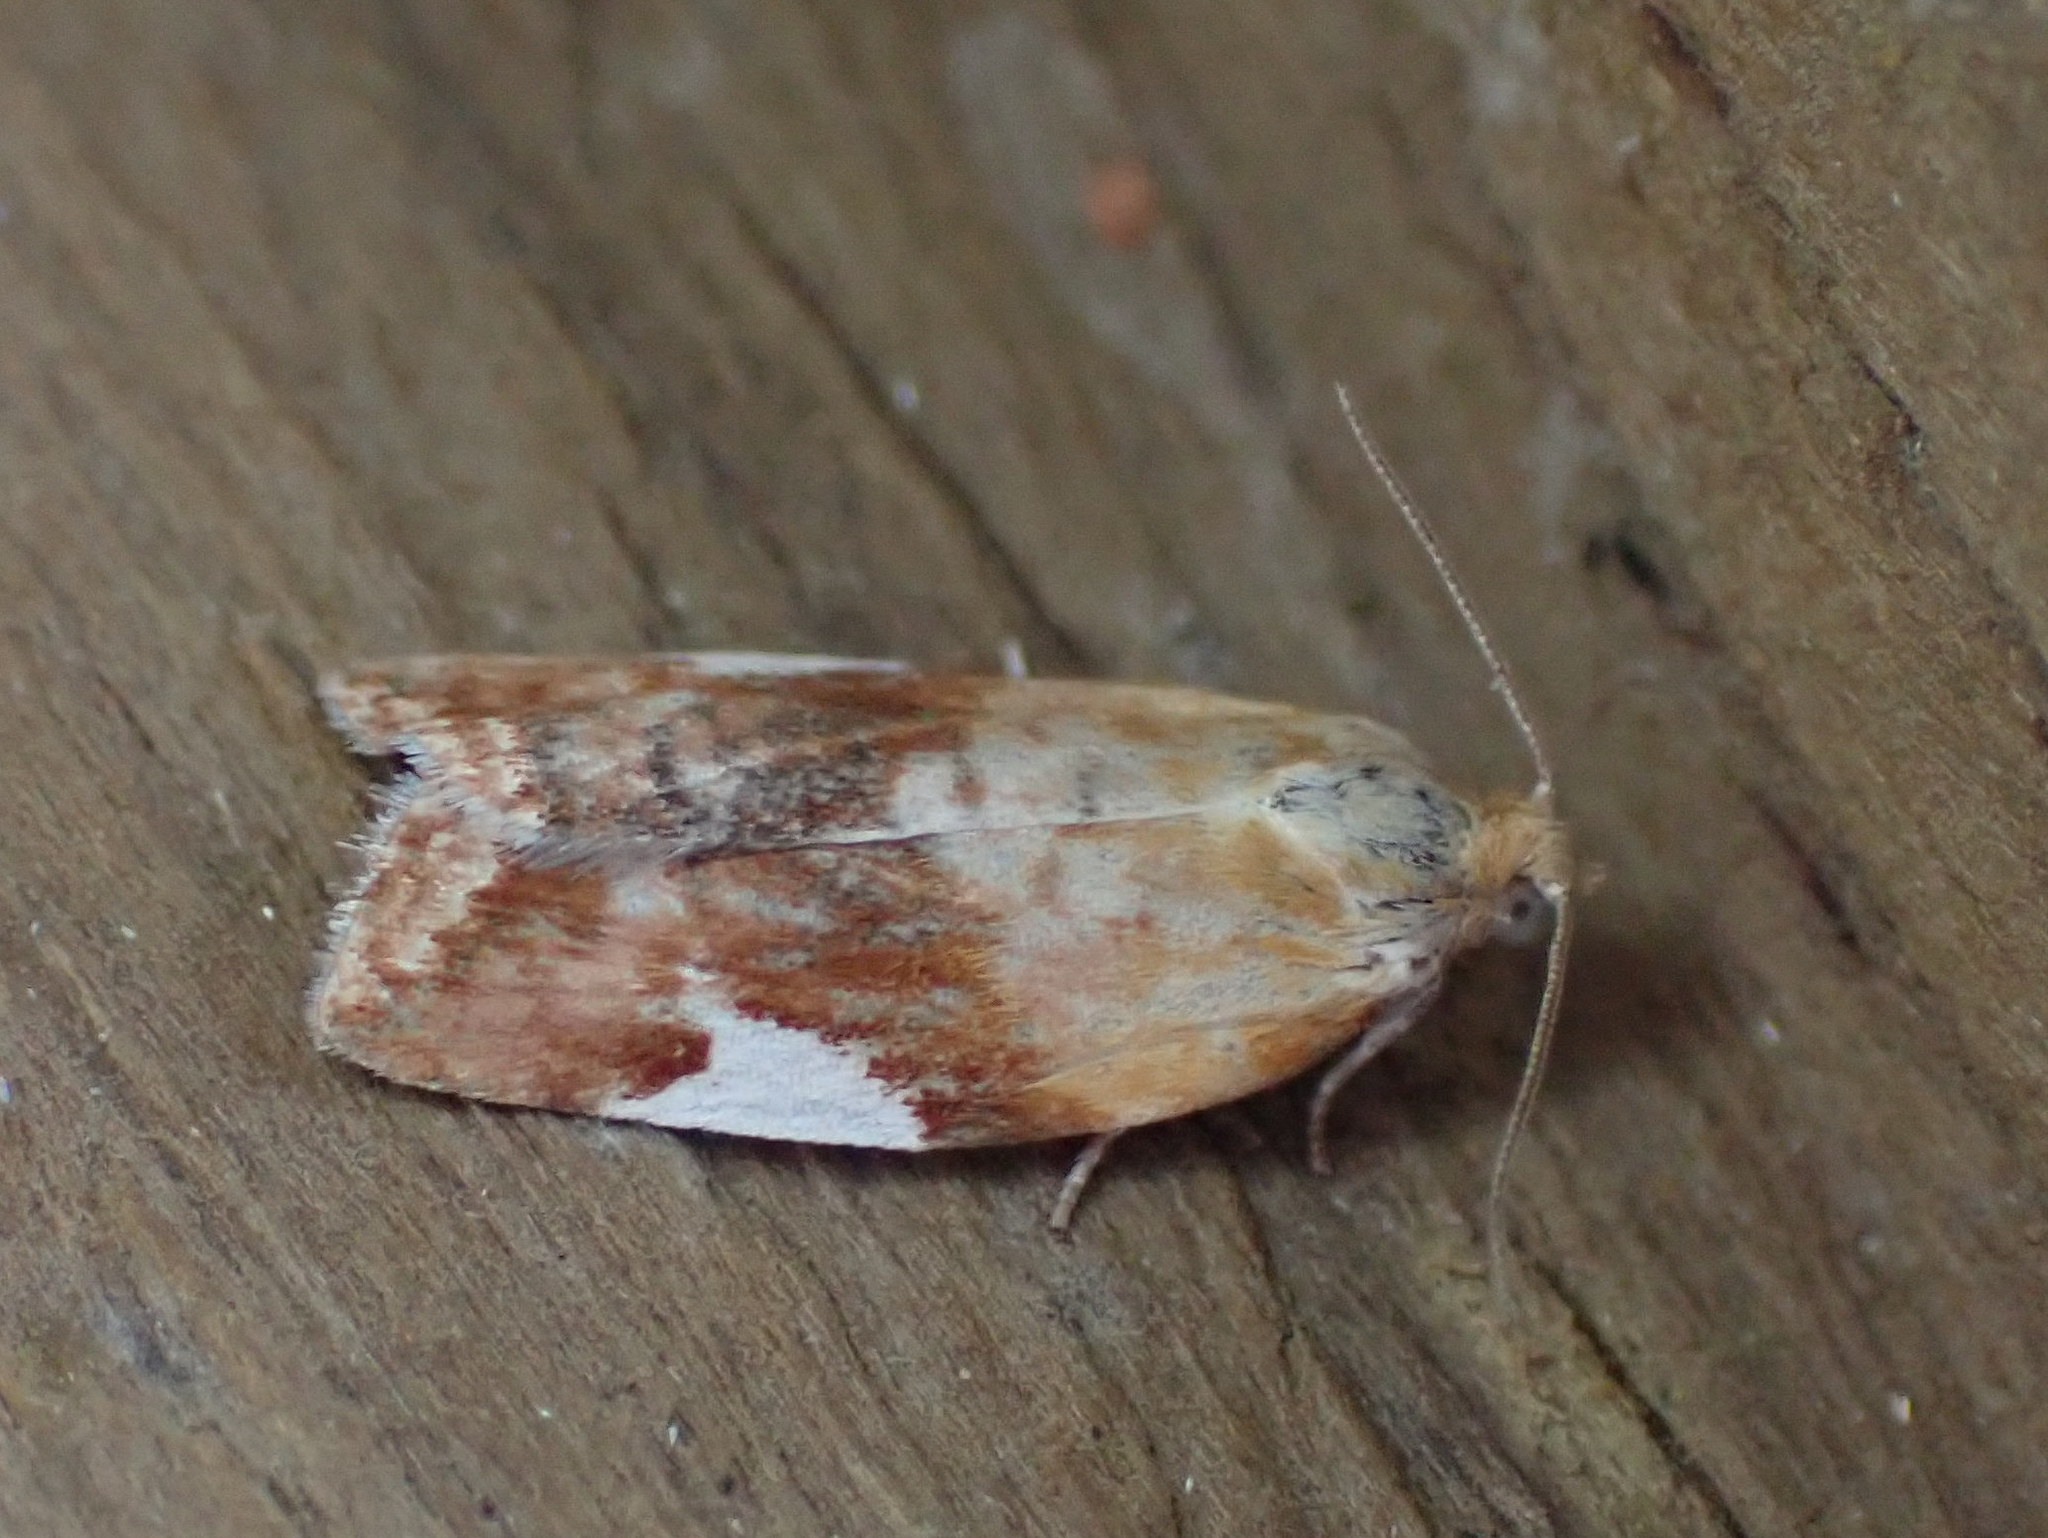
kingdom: Animalia
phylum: Arthropoda
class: Insecta
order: Lepidoptera
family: Tortricidae
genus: Clepsis
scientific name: Clepsis persicana
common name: White triangle tortrix
